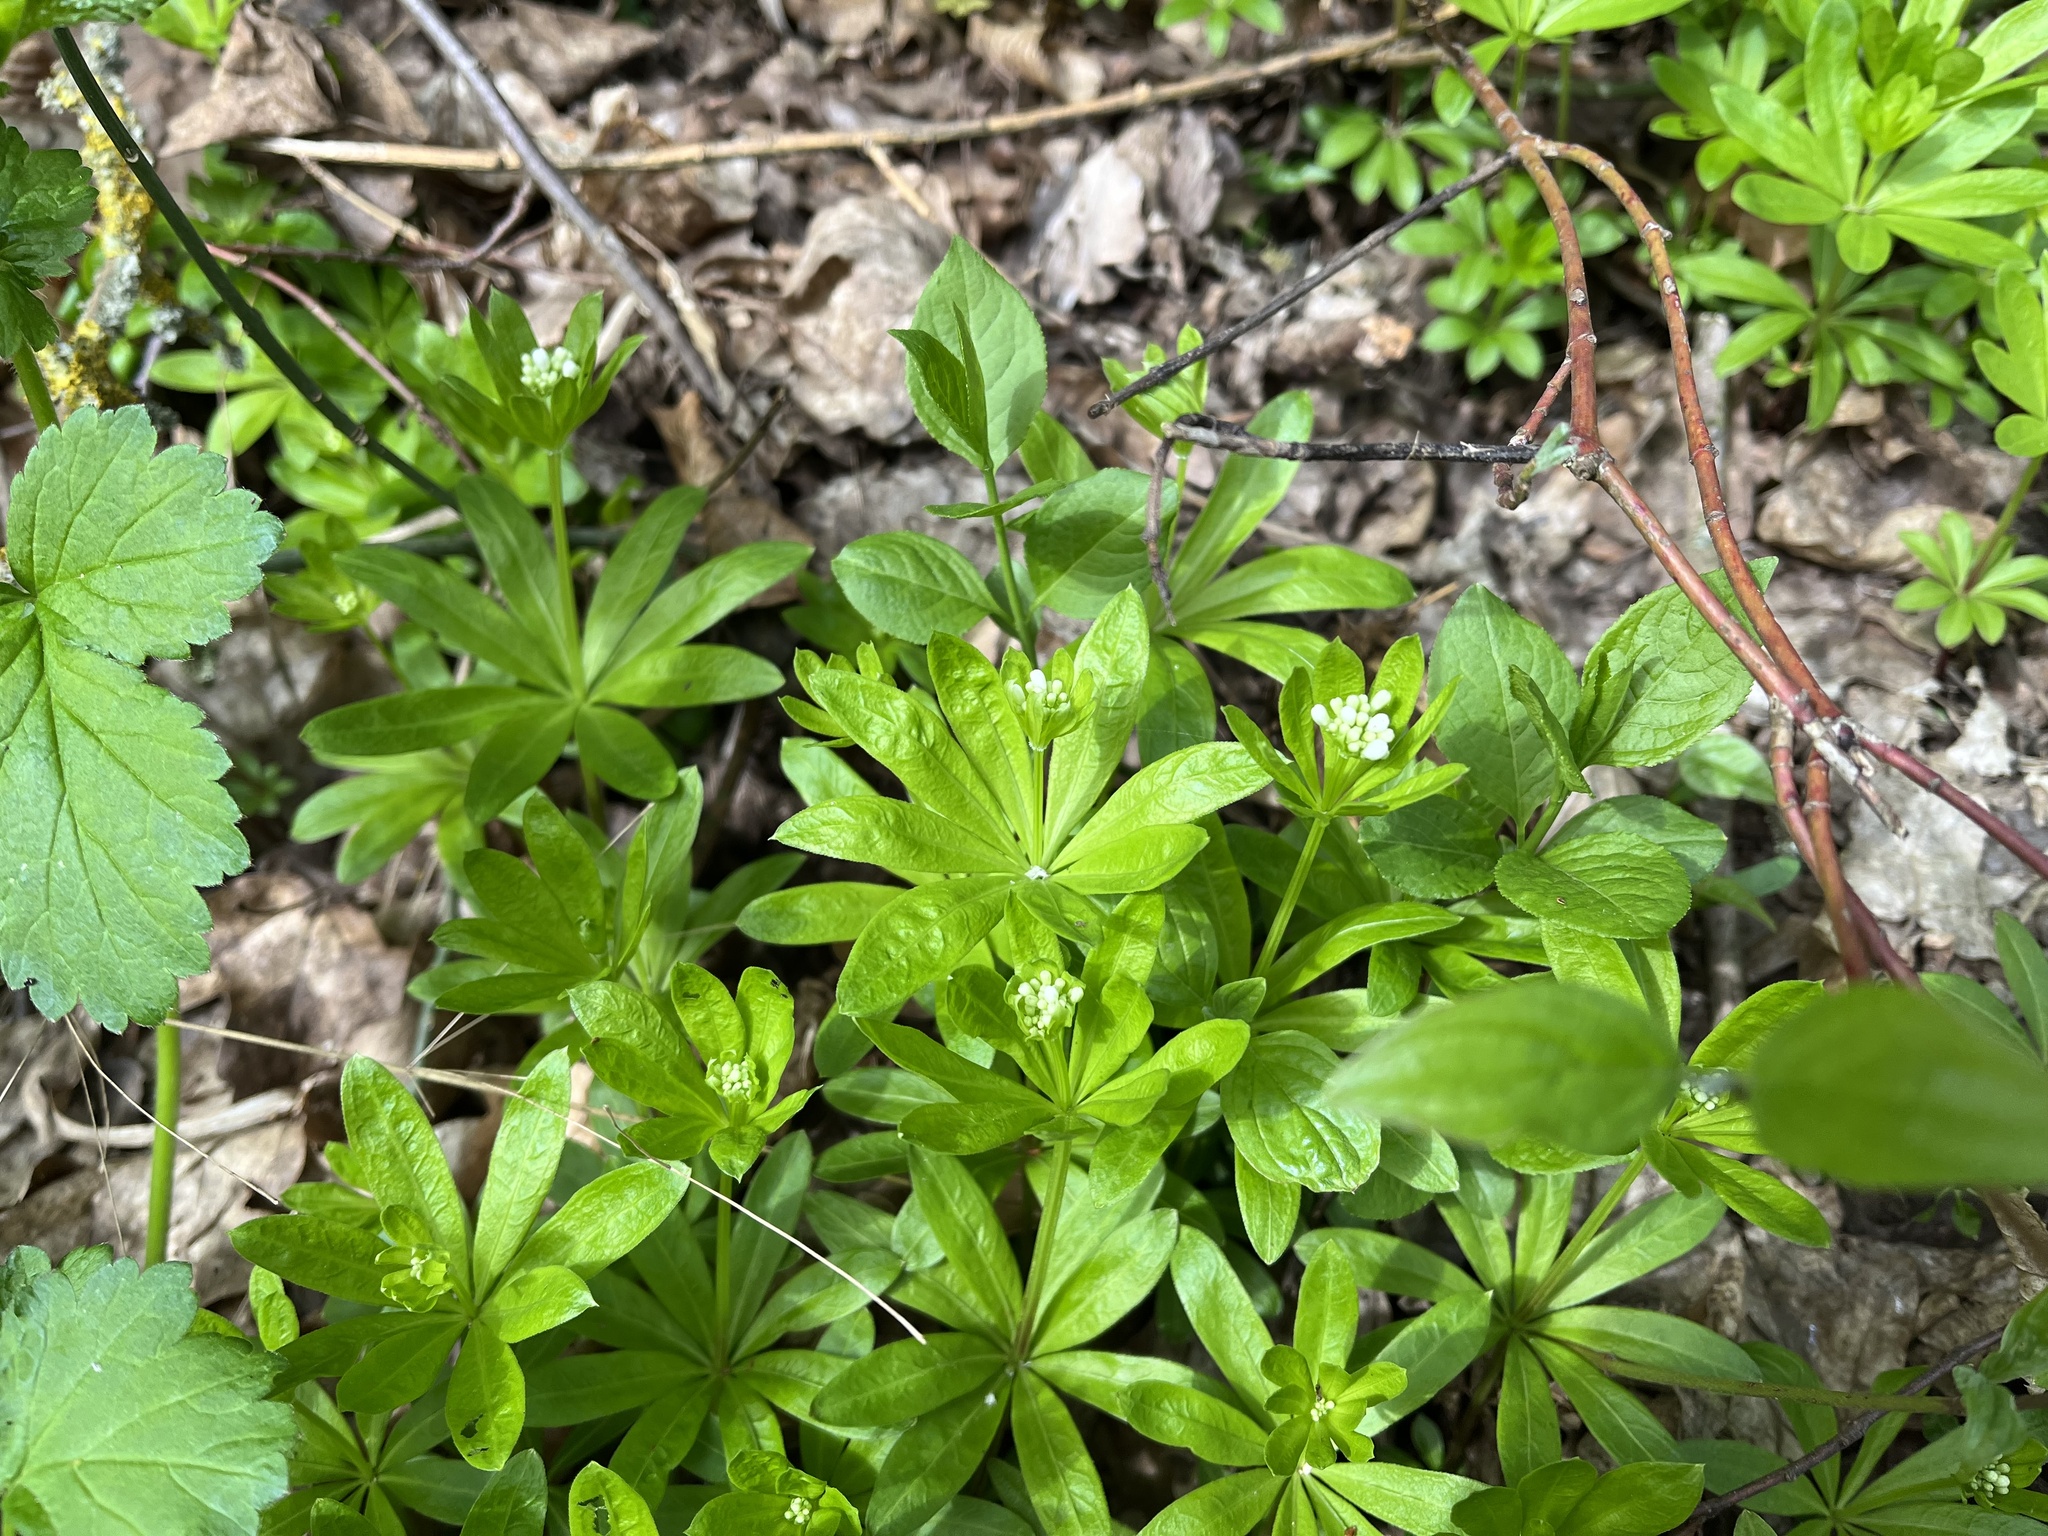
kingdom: Plantae
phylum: Tracheophyta
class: Magnoliopsida
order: Gentianales
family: Rubiaceae
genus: Galium
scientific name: Galium odoratum
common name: Sweet woodruff
